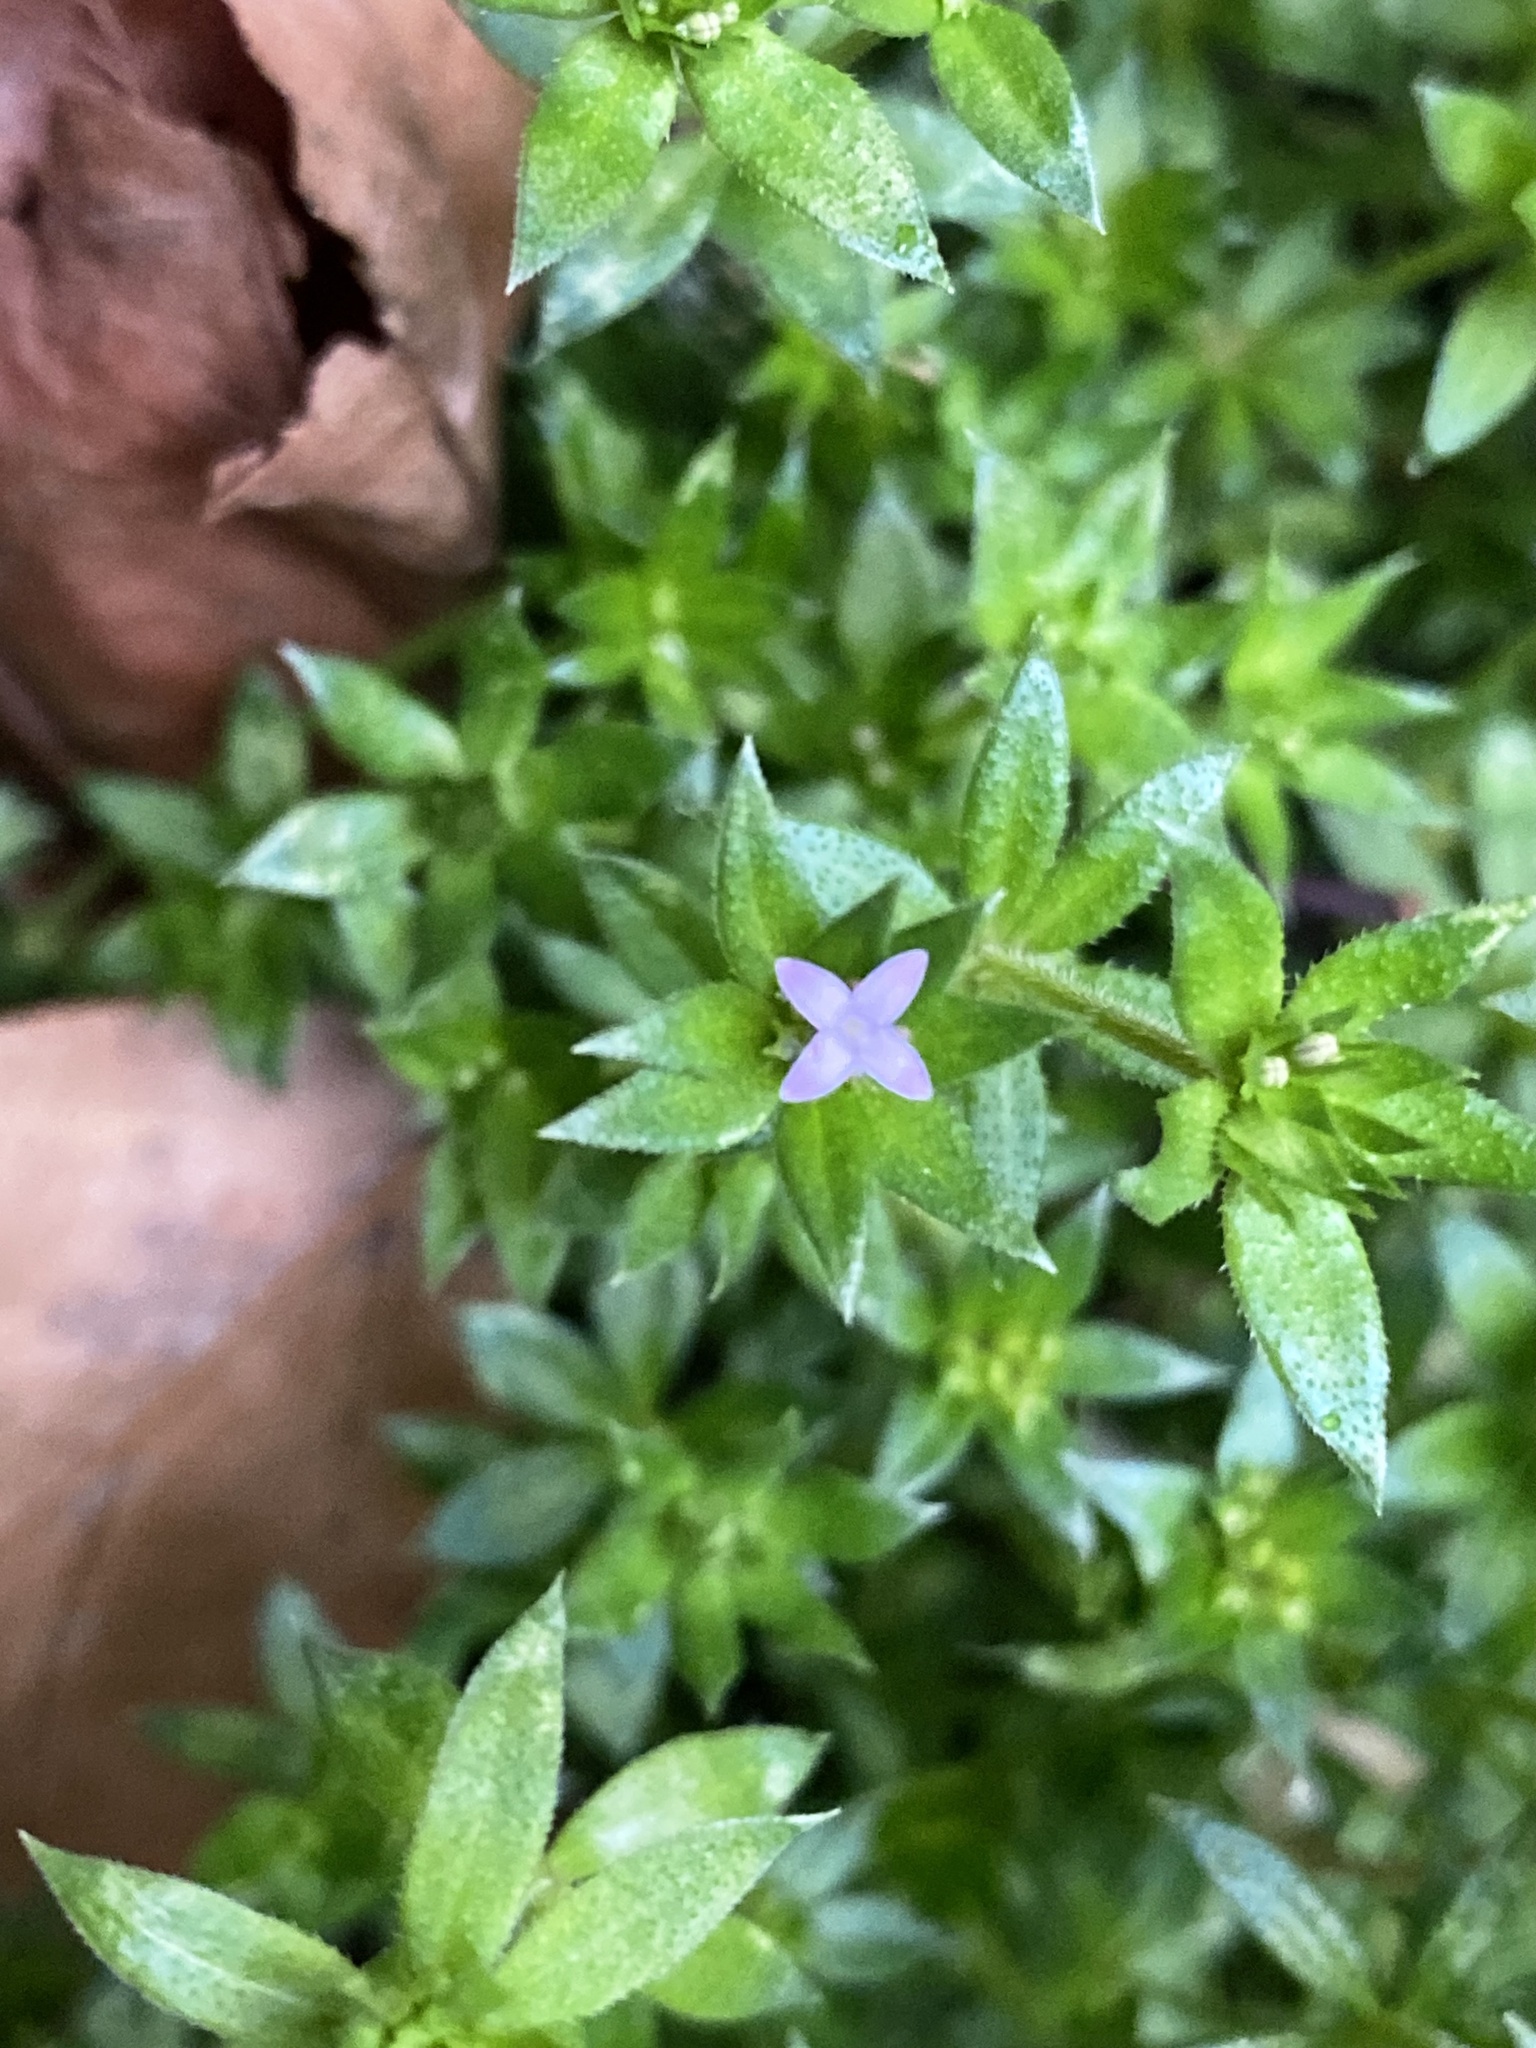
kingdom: Plantae
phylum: Tracheophyta
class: Magnoliopsida
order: Gentianales
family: Rubiaceae
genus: Sherardia
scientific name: Sherardia arvensis
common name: Field madder
